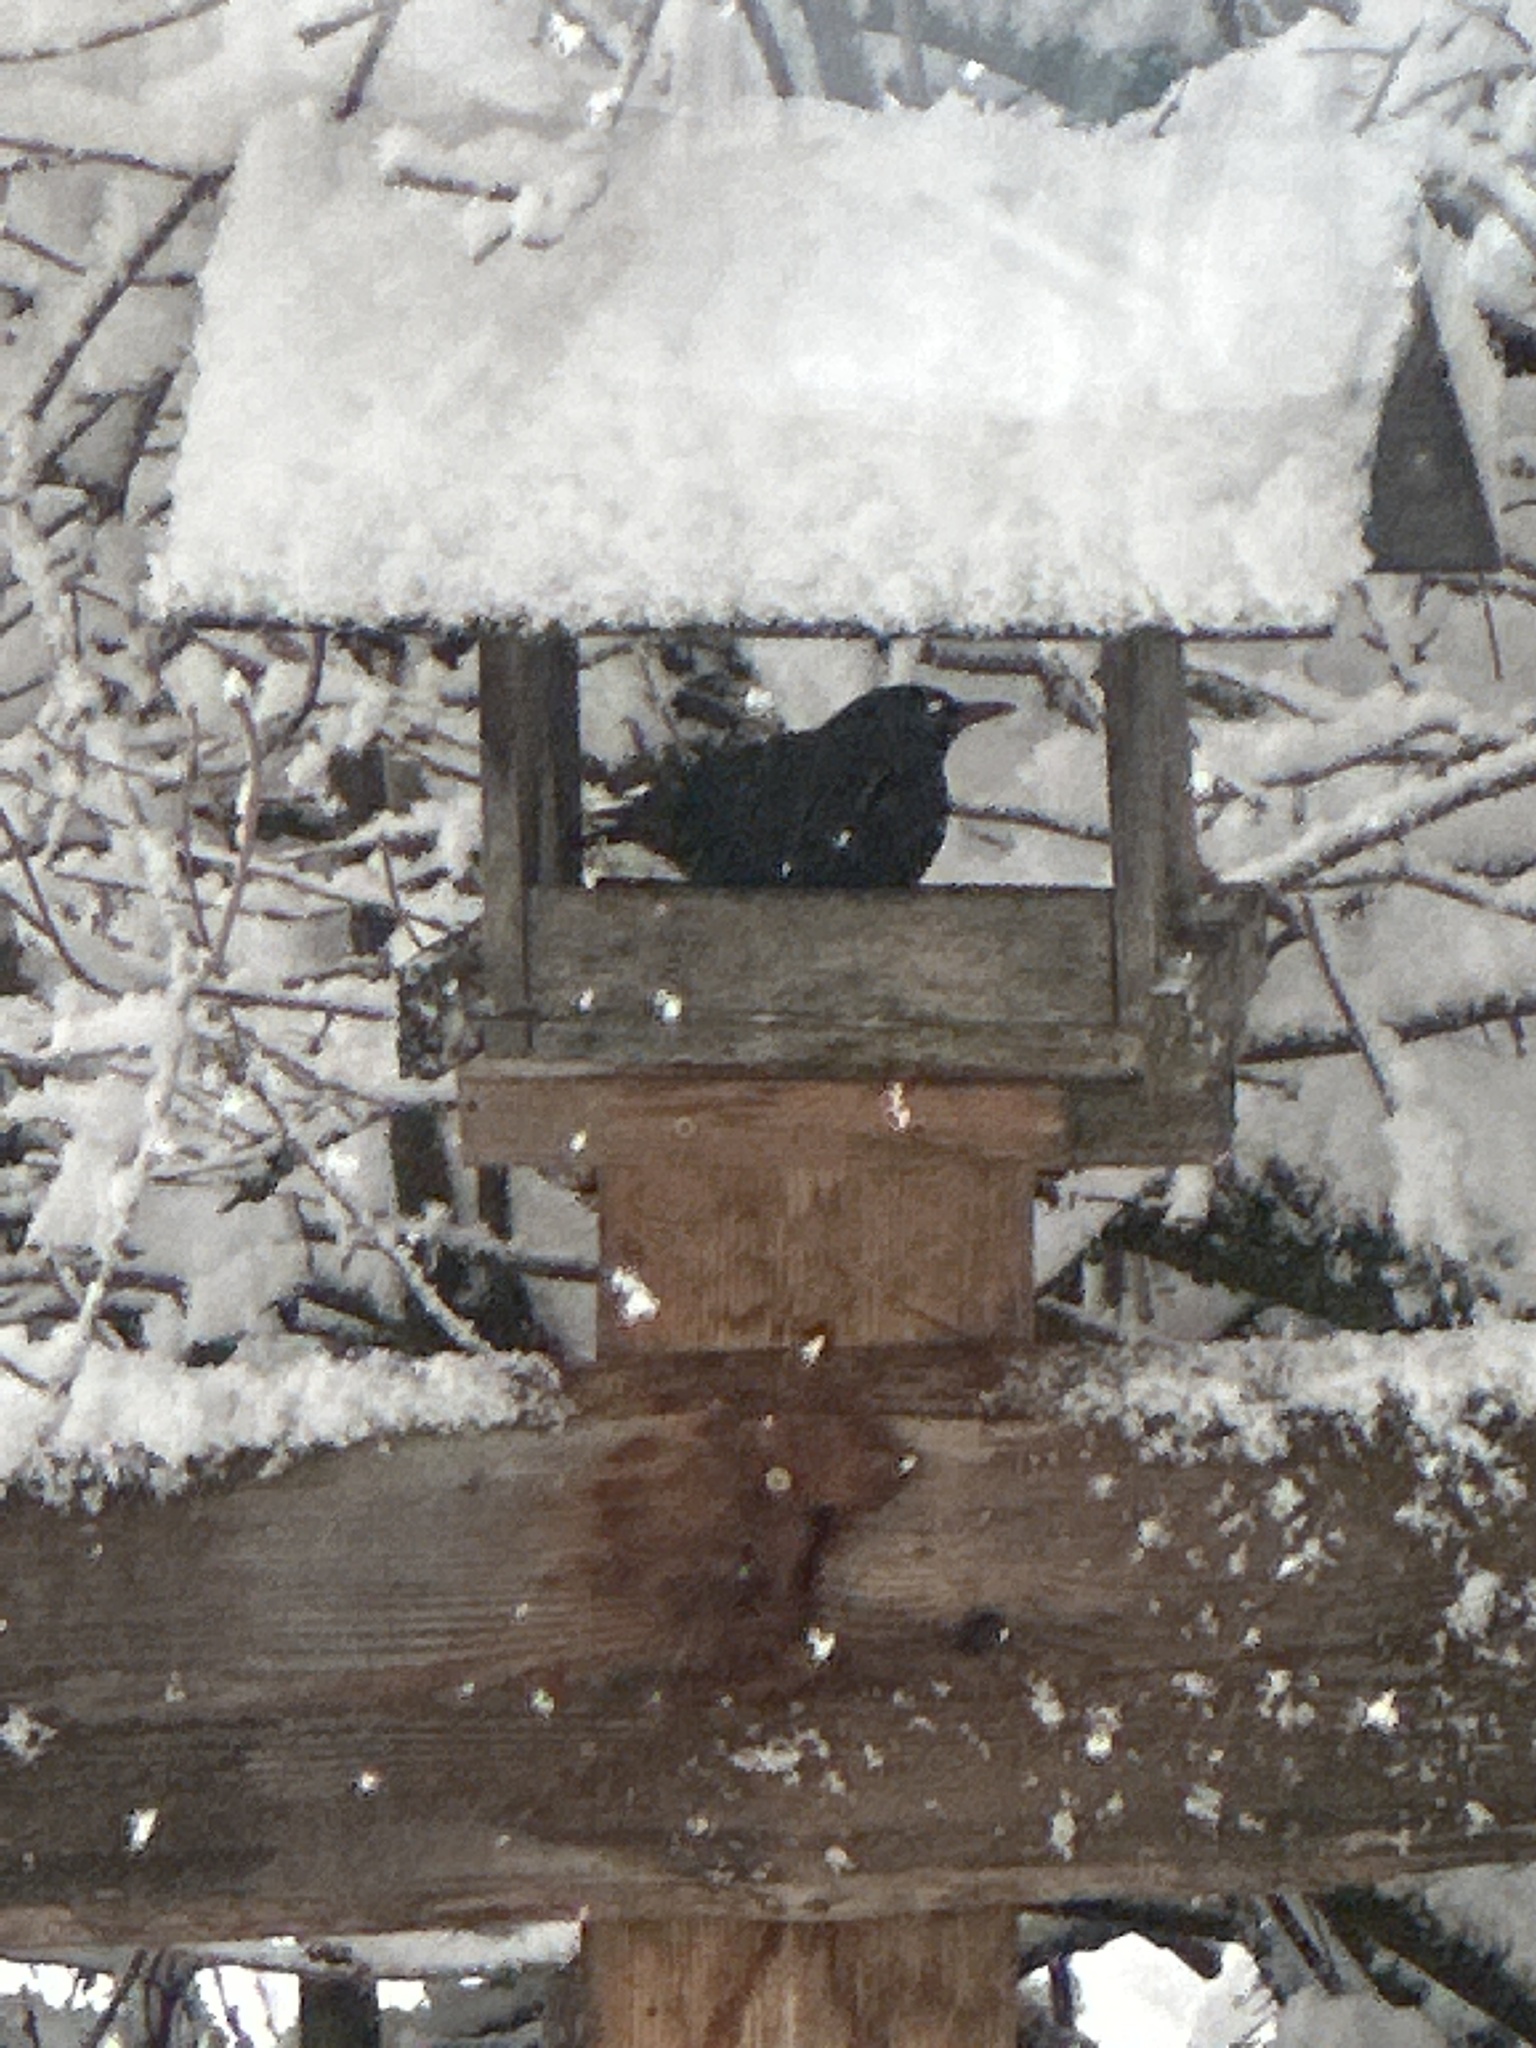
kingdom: Animalia
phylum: Chordata
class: Aves
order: Passeriformes
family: Turdidae
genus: Turdus
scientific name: Turdus merula
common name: Common blackbird
